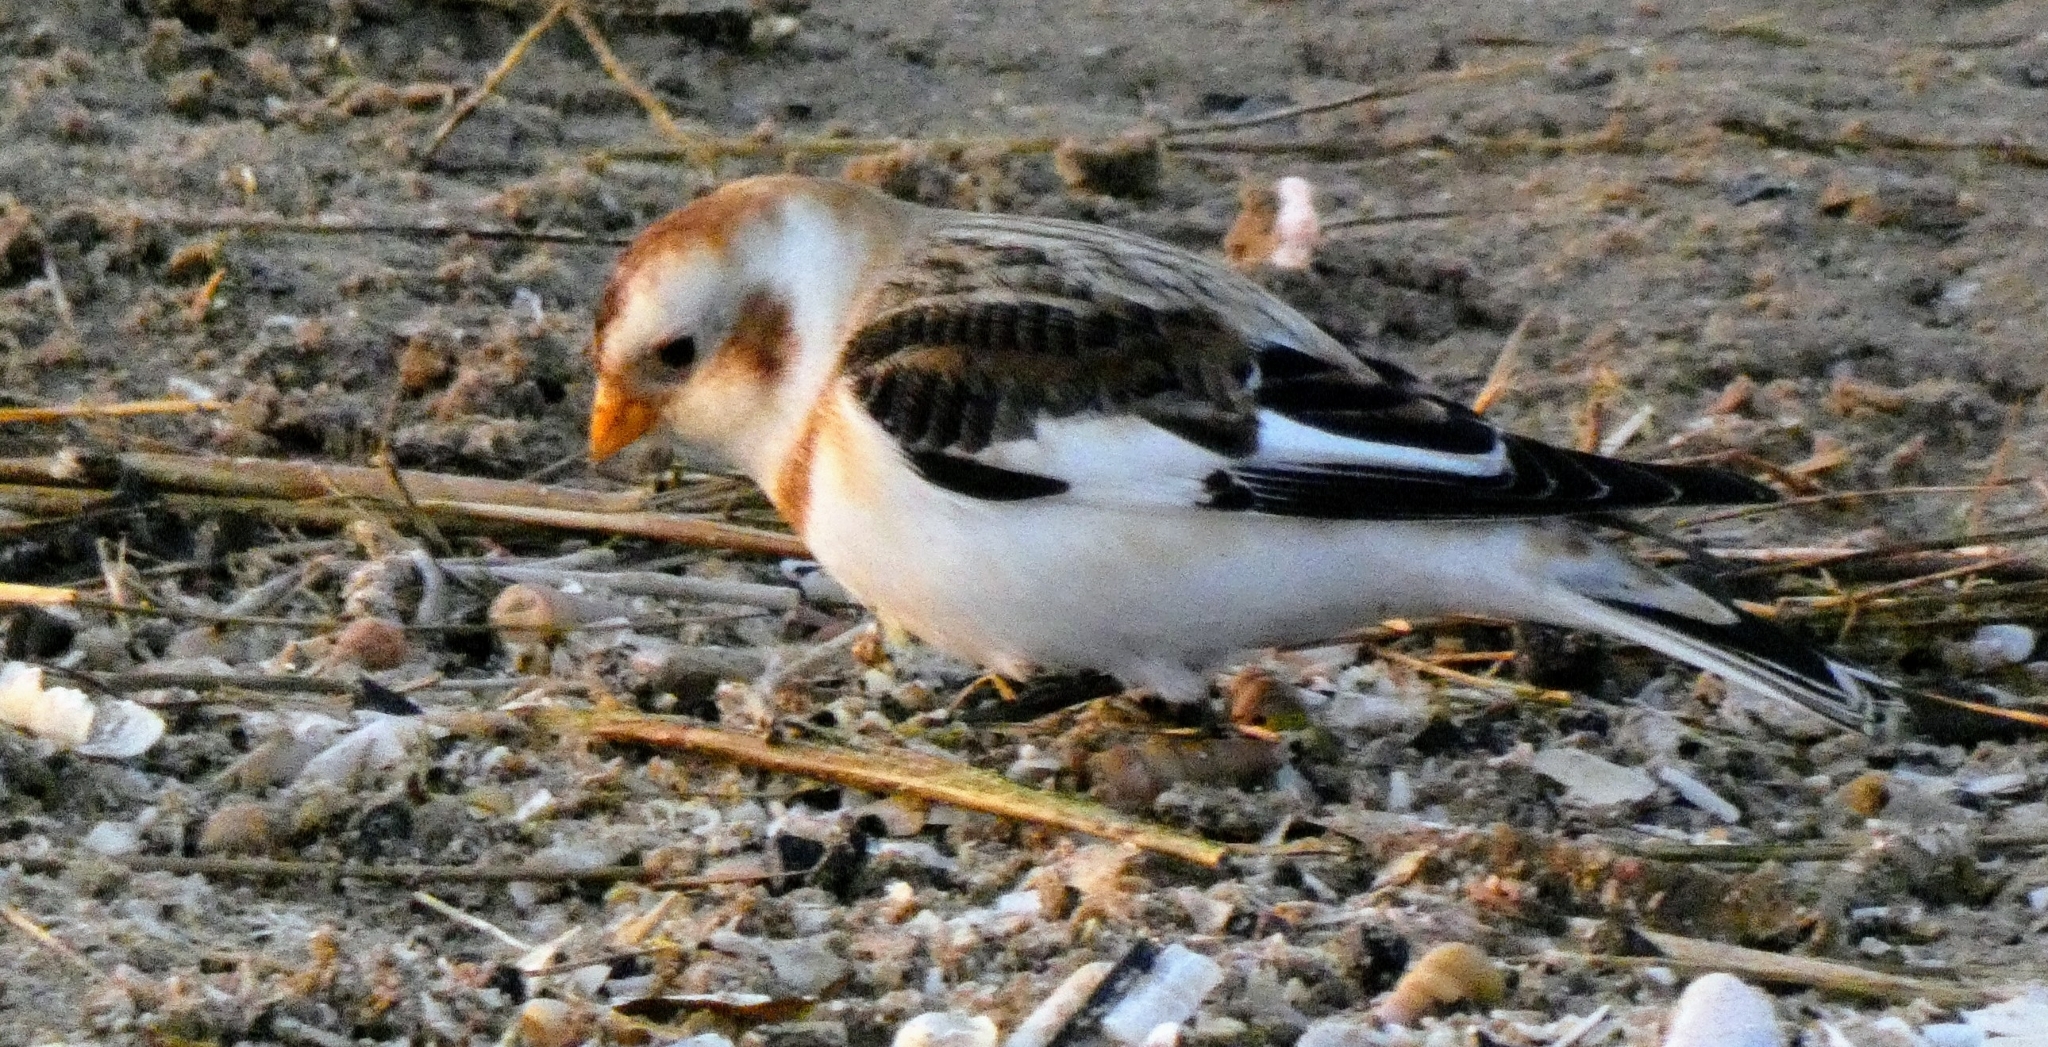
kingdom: Animalia
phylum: Chordata
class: Aves
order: Passeriformes
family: Calcariidae
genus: Plectrophenax
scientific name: Plectrophenax nivalis
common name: Snow bunting
